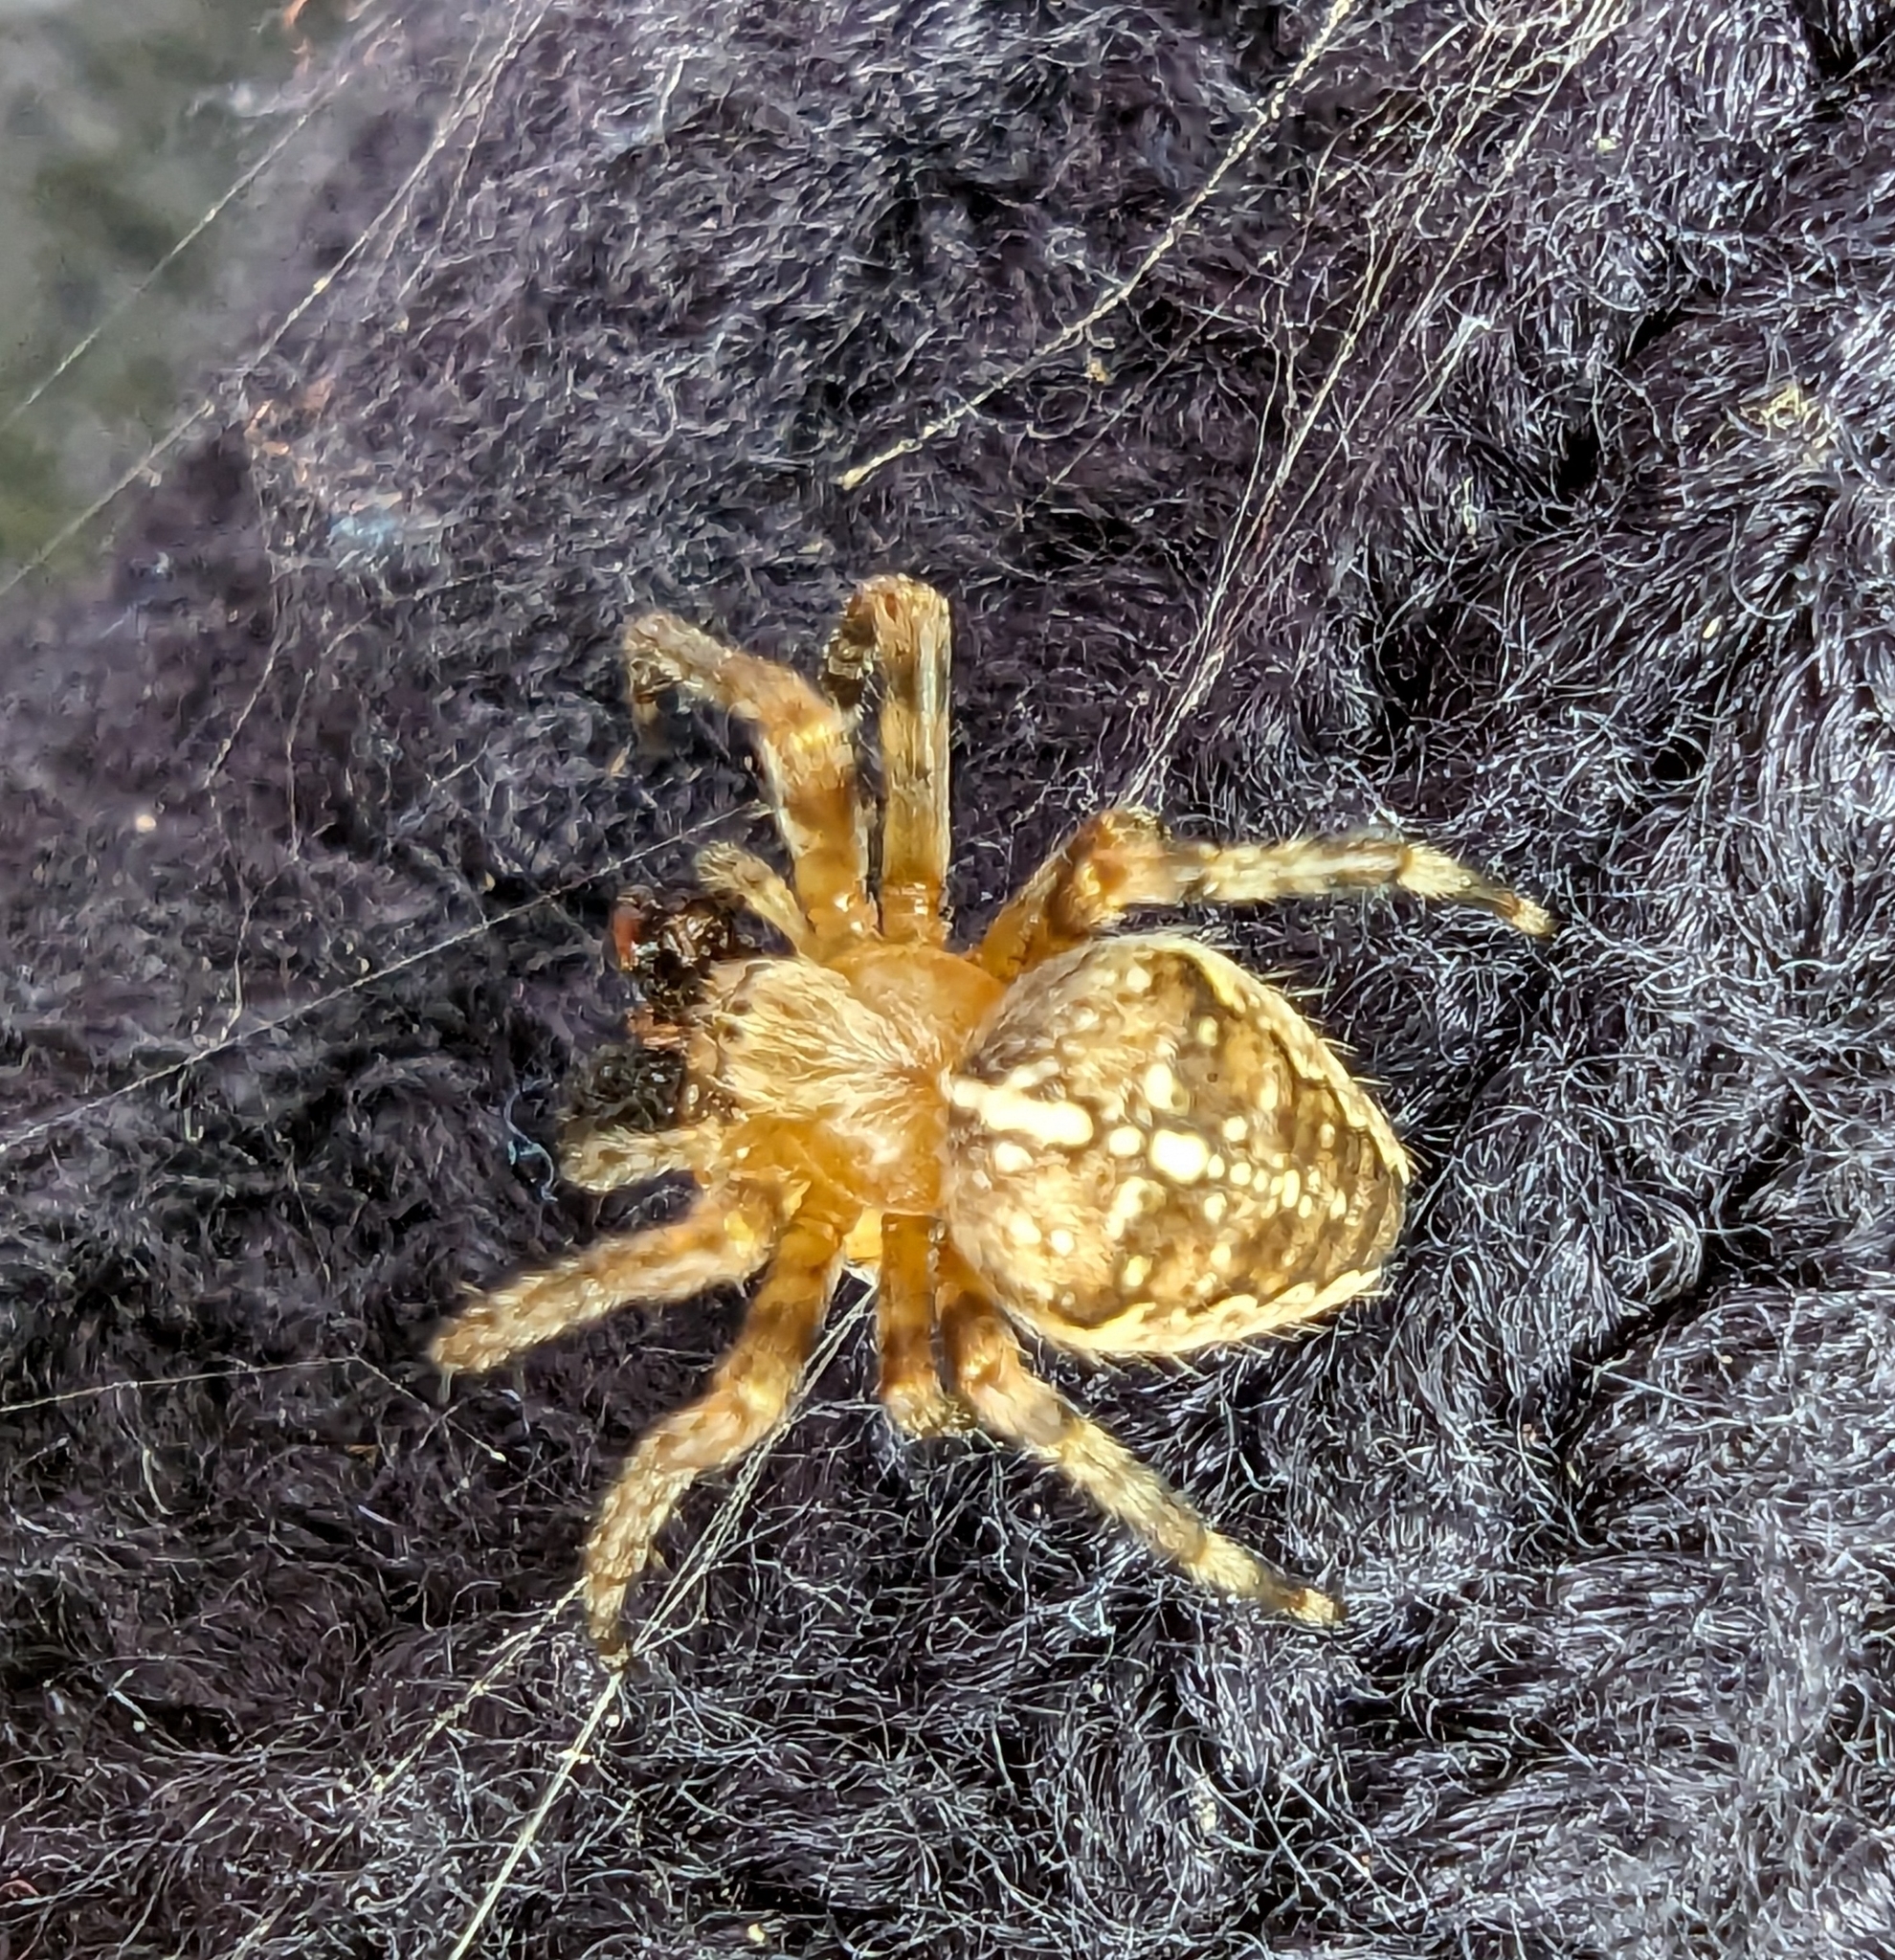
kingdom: Animalia
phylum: Arthropoda
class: Arachnida
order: Araneae
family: Araneidae
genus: Araneus
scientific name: Araneus diadematus
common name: Cross orbweaver
